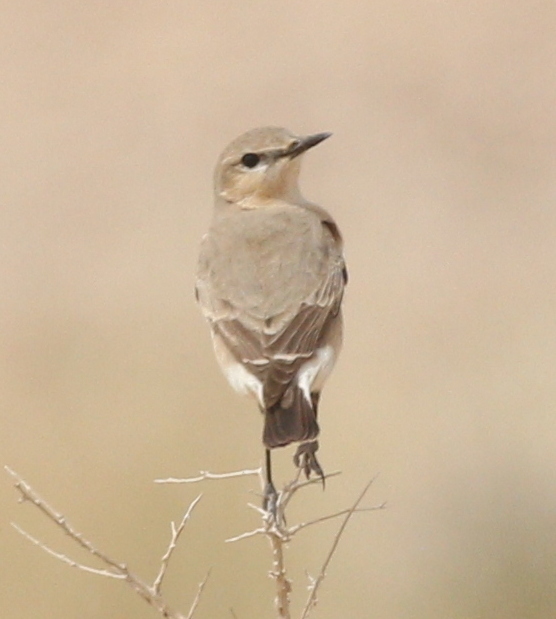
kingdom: Animalia
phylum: Chordata
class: Aves
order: Passeriformes
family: Muscicapidae
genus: Oenanthe
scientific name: Oenanthe isabellina
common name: Isabelline wheatear
